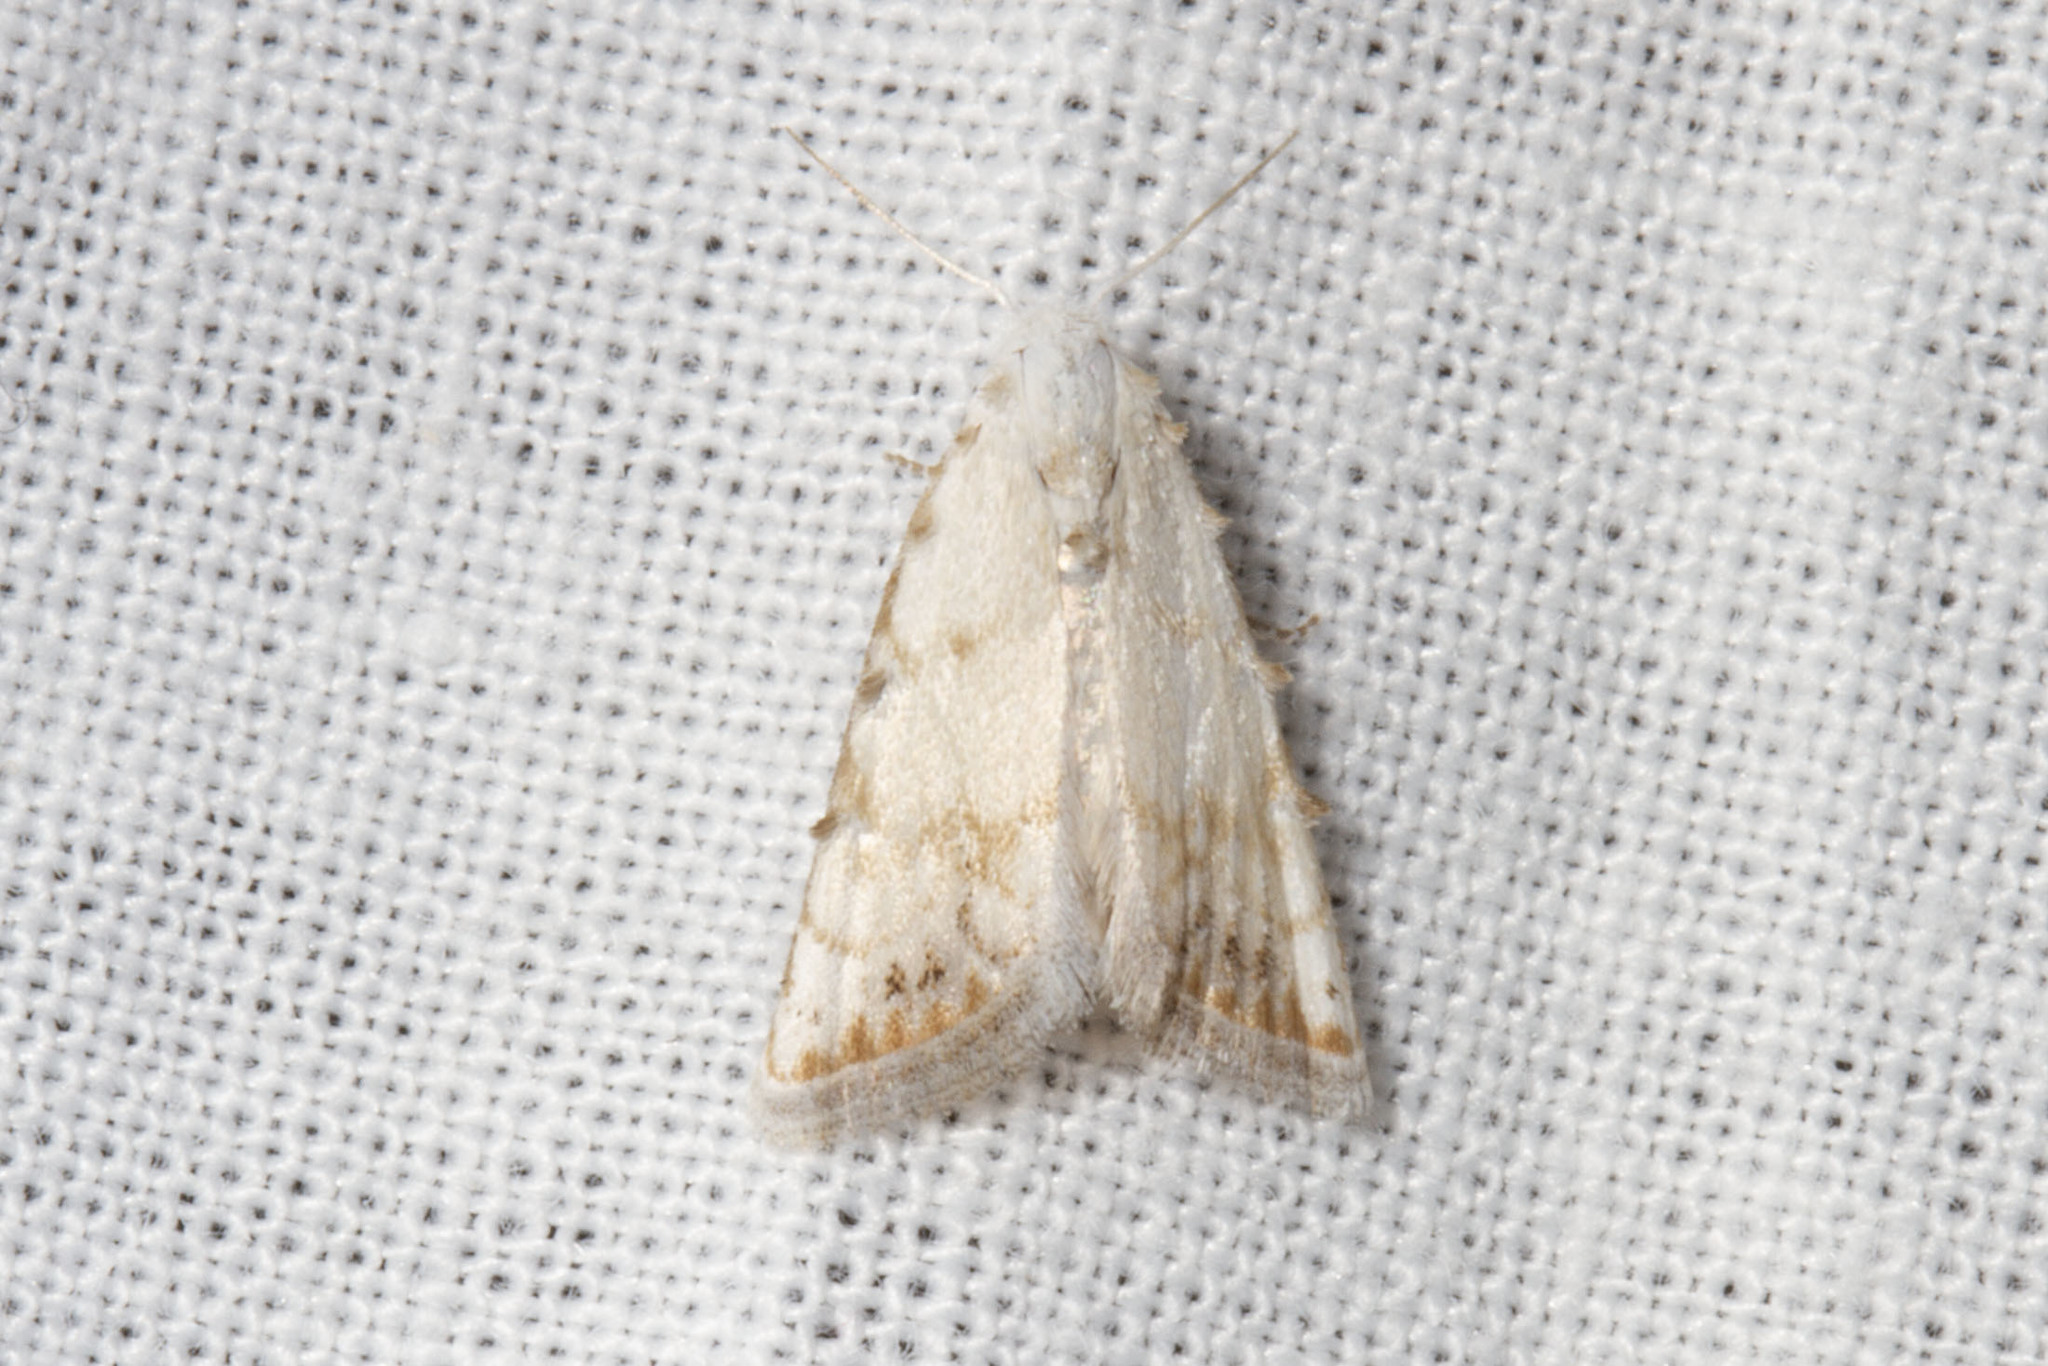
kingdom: Animalia
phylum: Arthropoda
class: Insecta
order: Lepidoptera
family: Nolidae
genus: Nola
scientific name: Nola cereella
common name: Sorghum webworm moth
